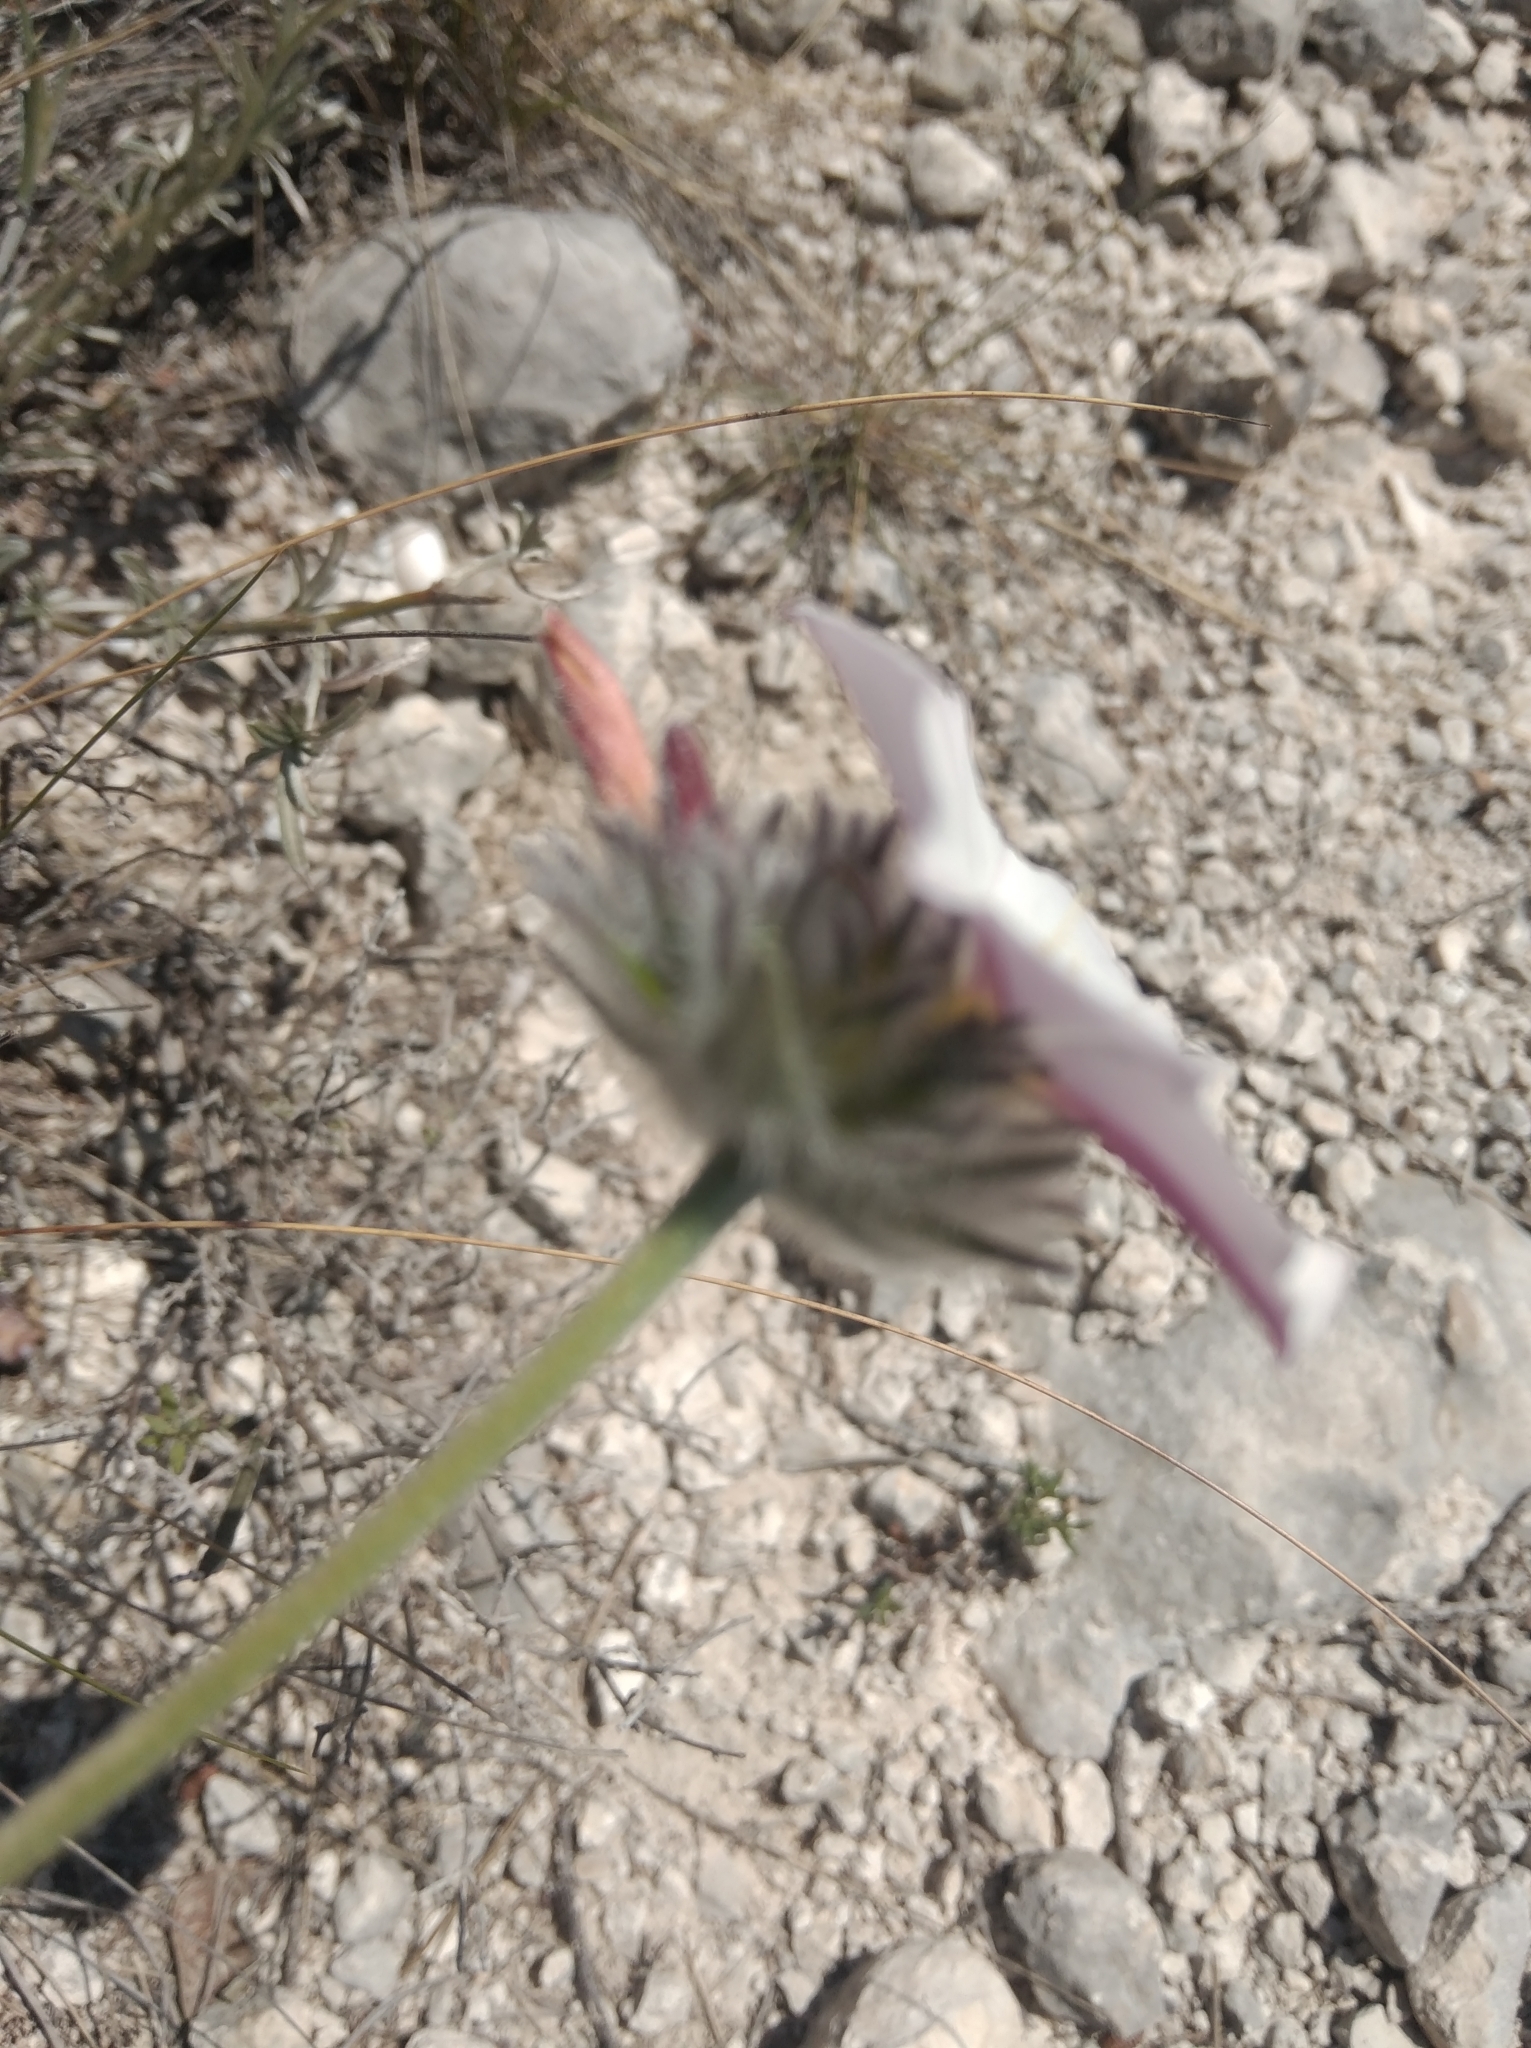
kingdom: Plantae
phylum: Tracheophyta
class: Magnoliopsida
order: Solanales
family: Convolvulaceae
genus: Convolvulus
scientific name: Convolvulus lanuginosus
